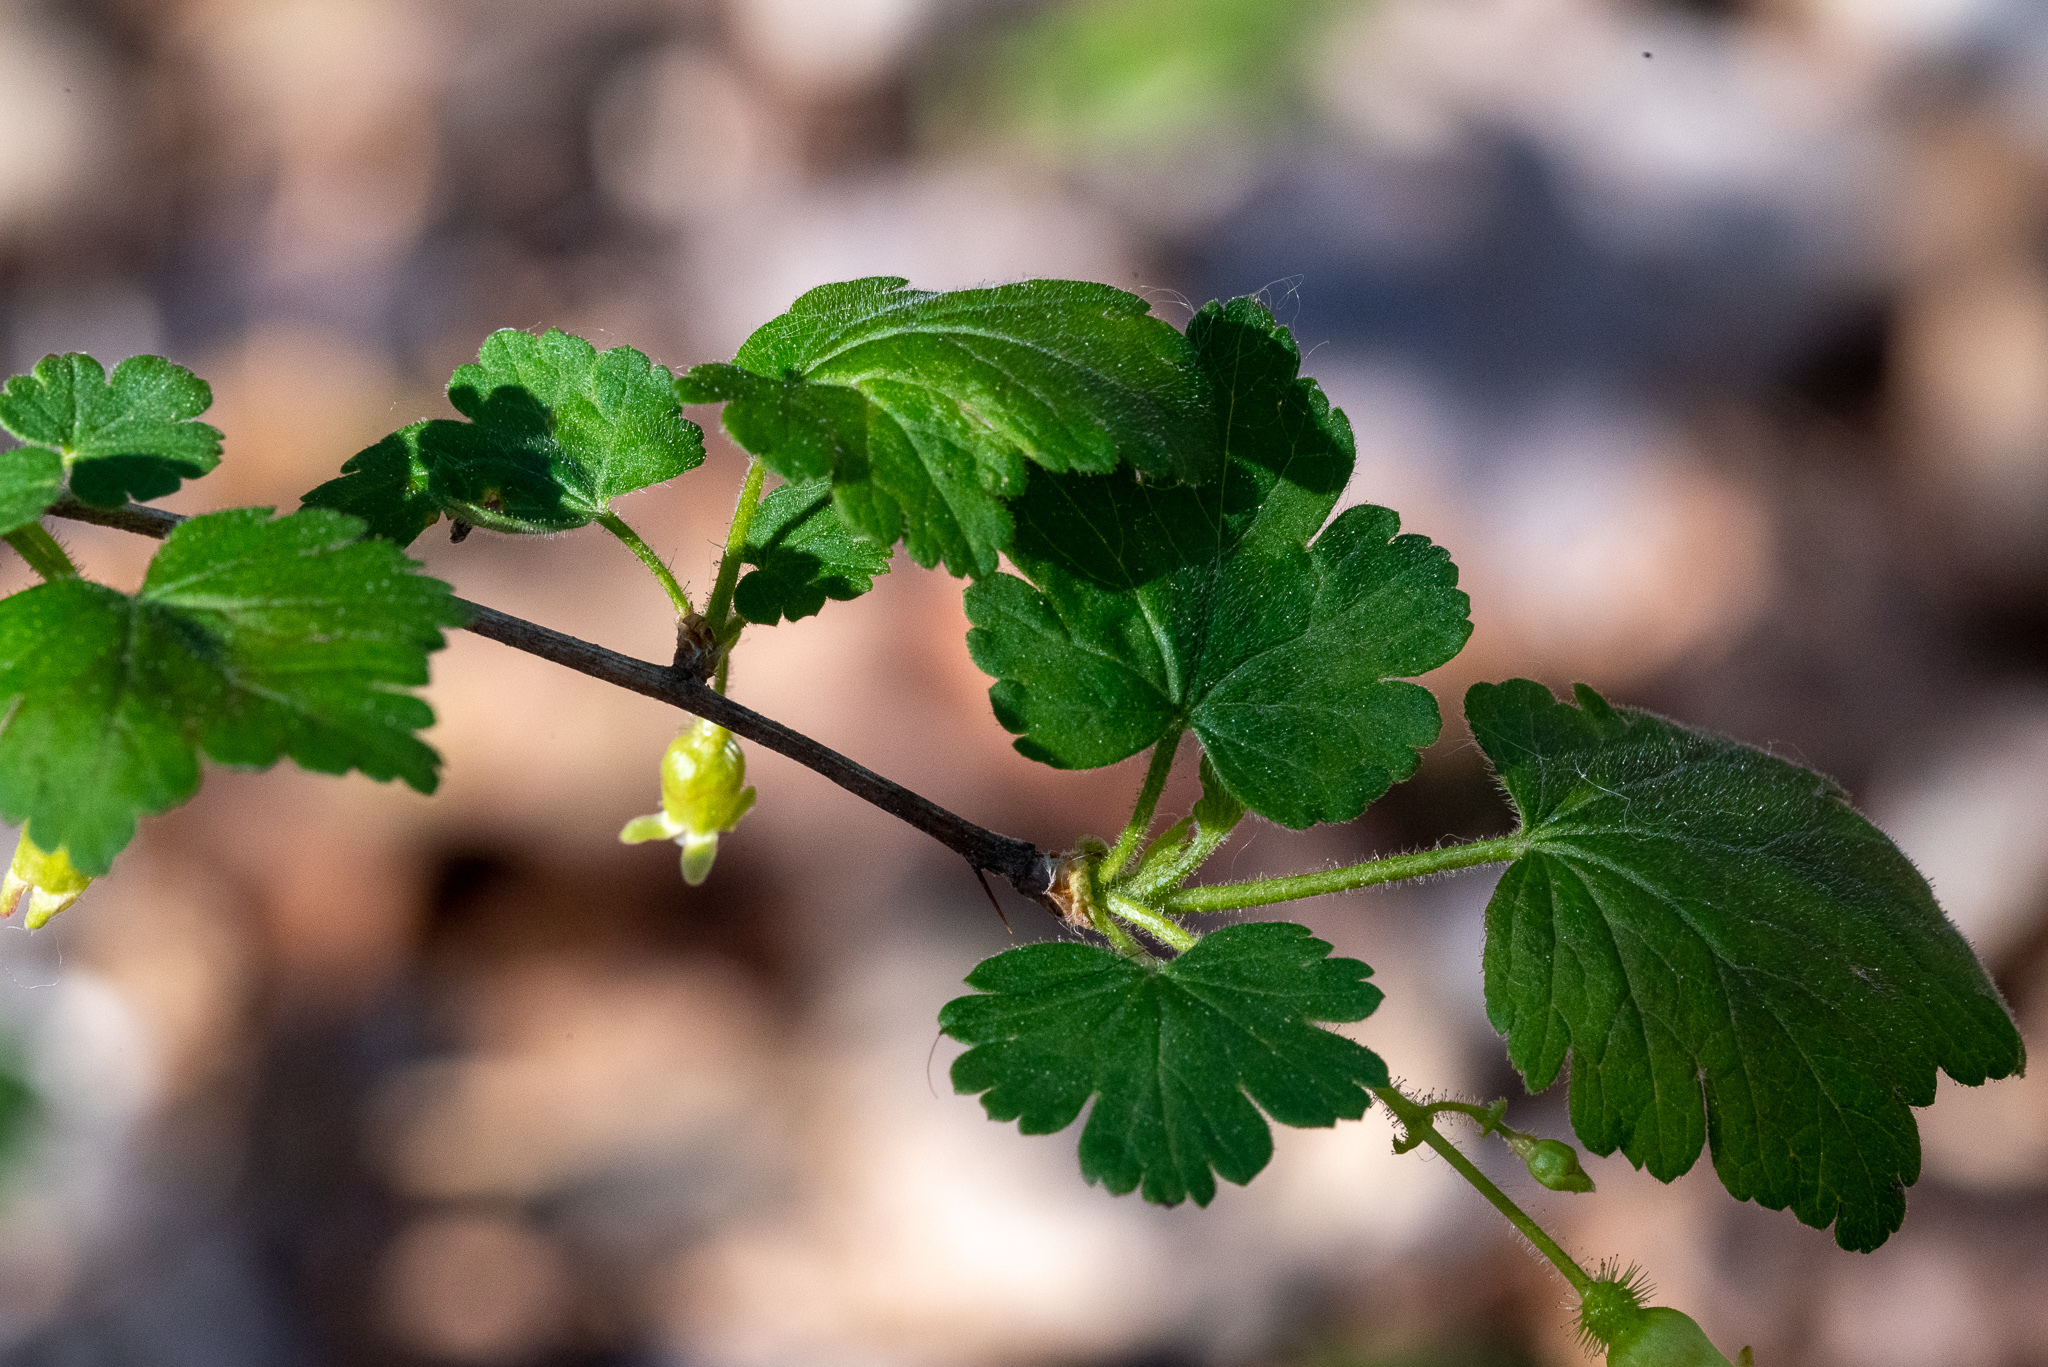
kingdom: Plantae
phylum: Tracheophyta
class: Magnoliopsida
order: Saxifragales
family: Grossulariaceae
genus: Ribes
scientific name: Ribes cynosbati
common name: American gooseberry
